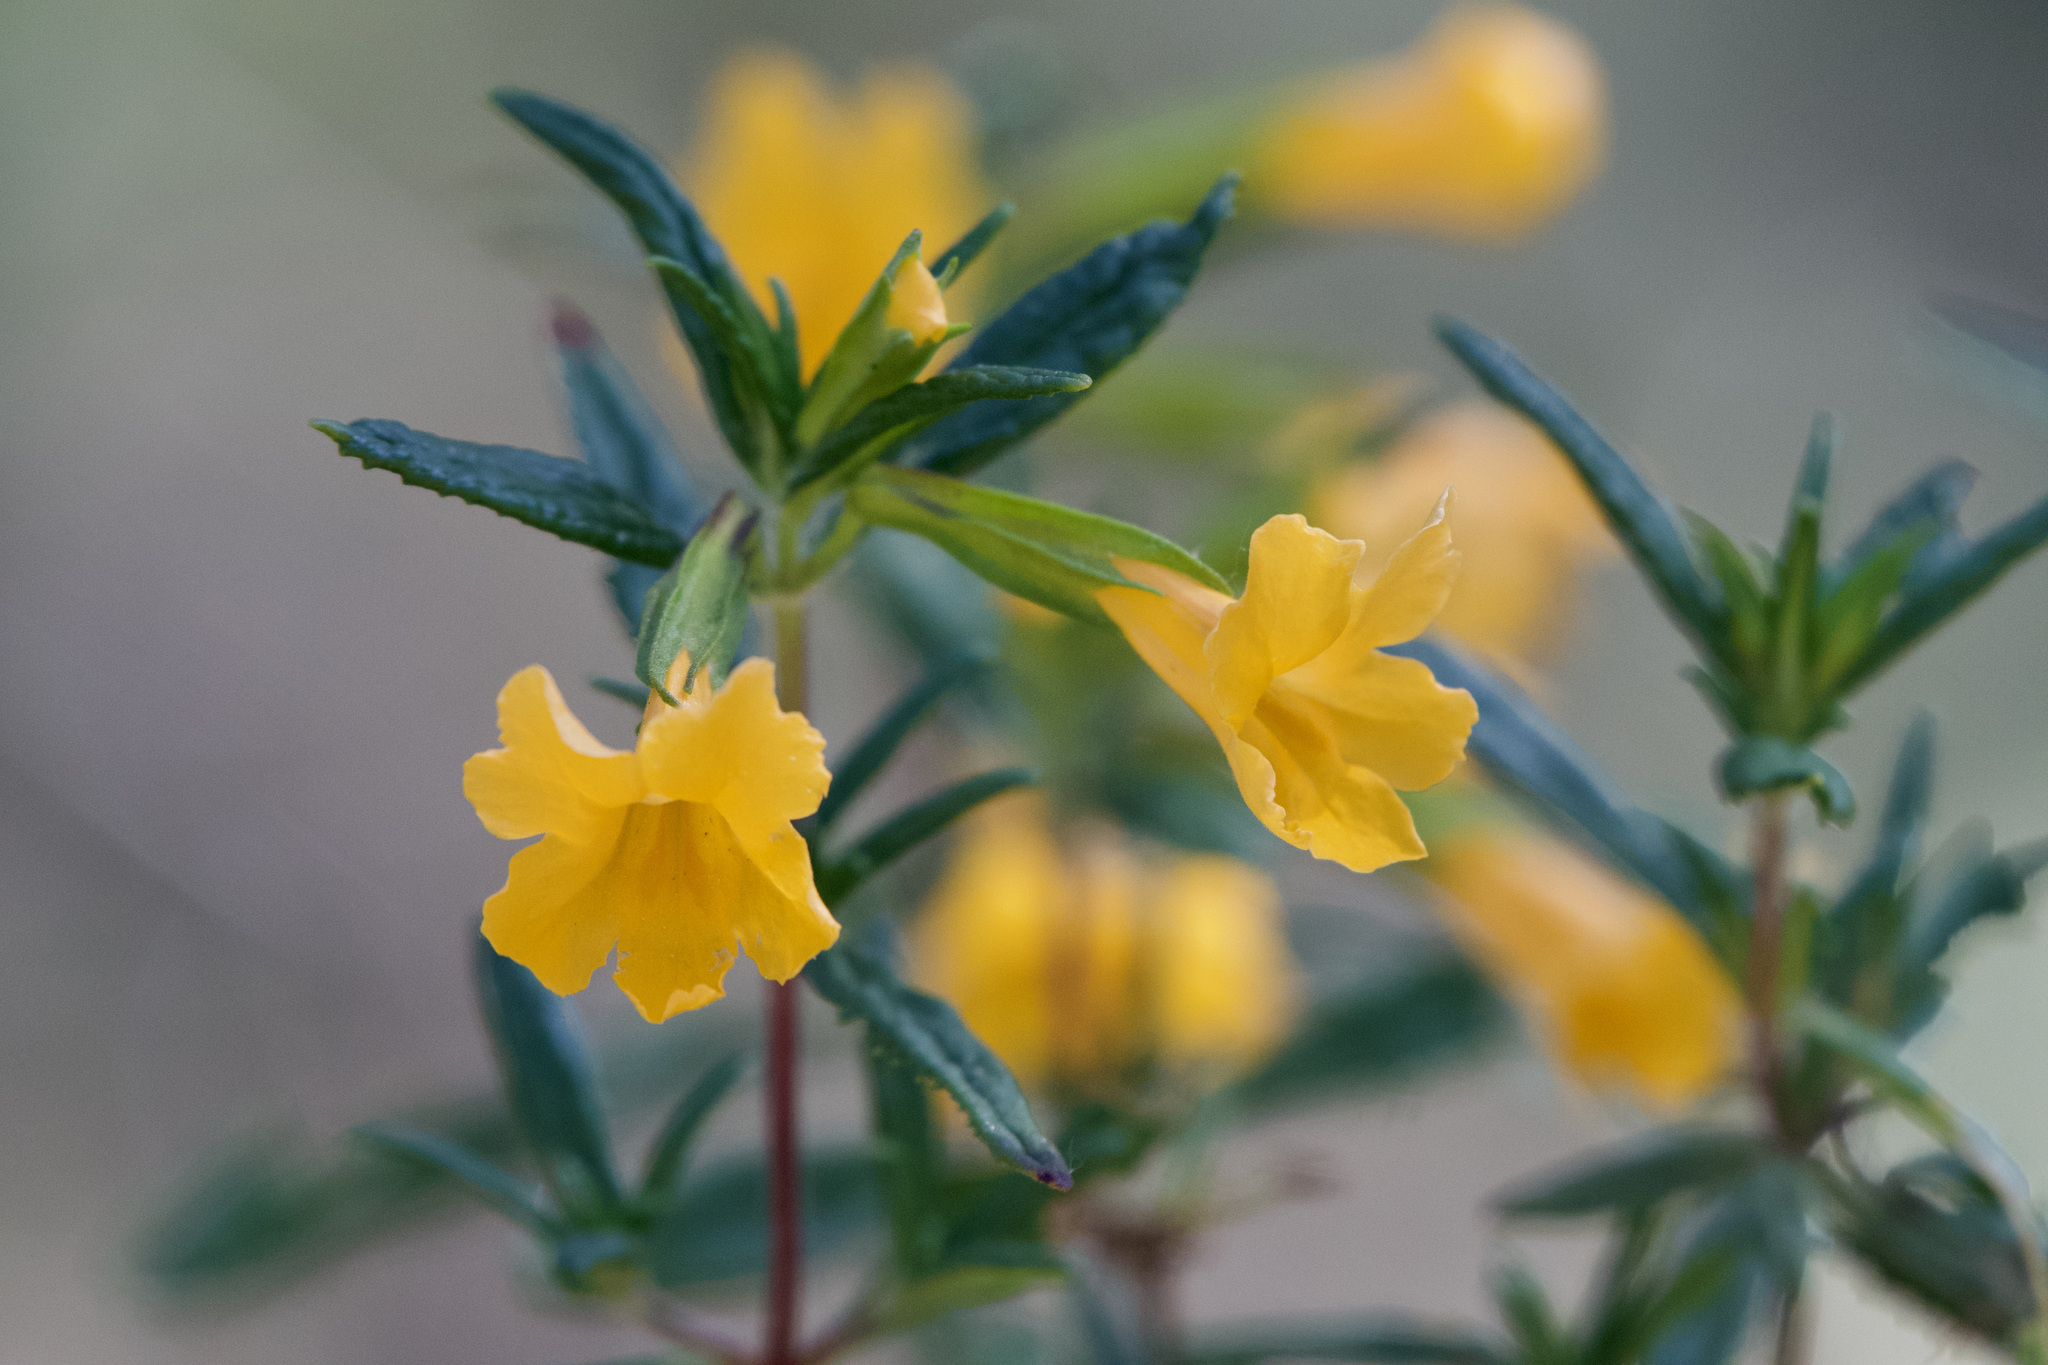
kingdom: Plantae
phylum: Tracheophyta
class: Magnoliopsida
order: Lamiales
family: Phrymaceae
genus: Diplacus
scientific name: Diplacus aurantiacus
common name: Bush monkey-flower
